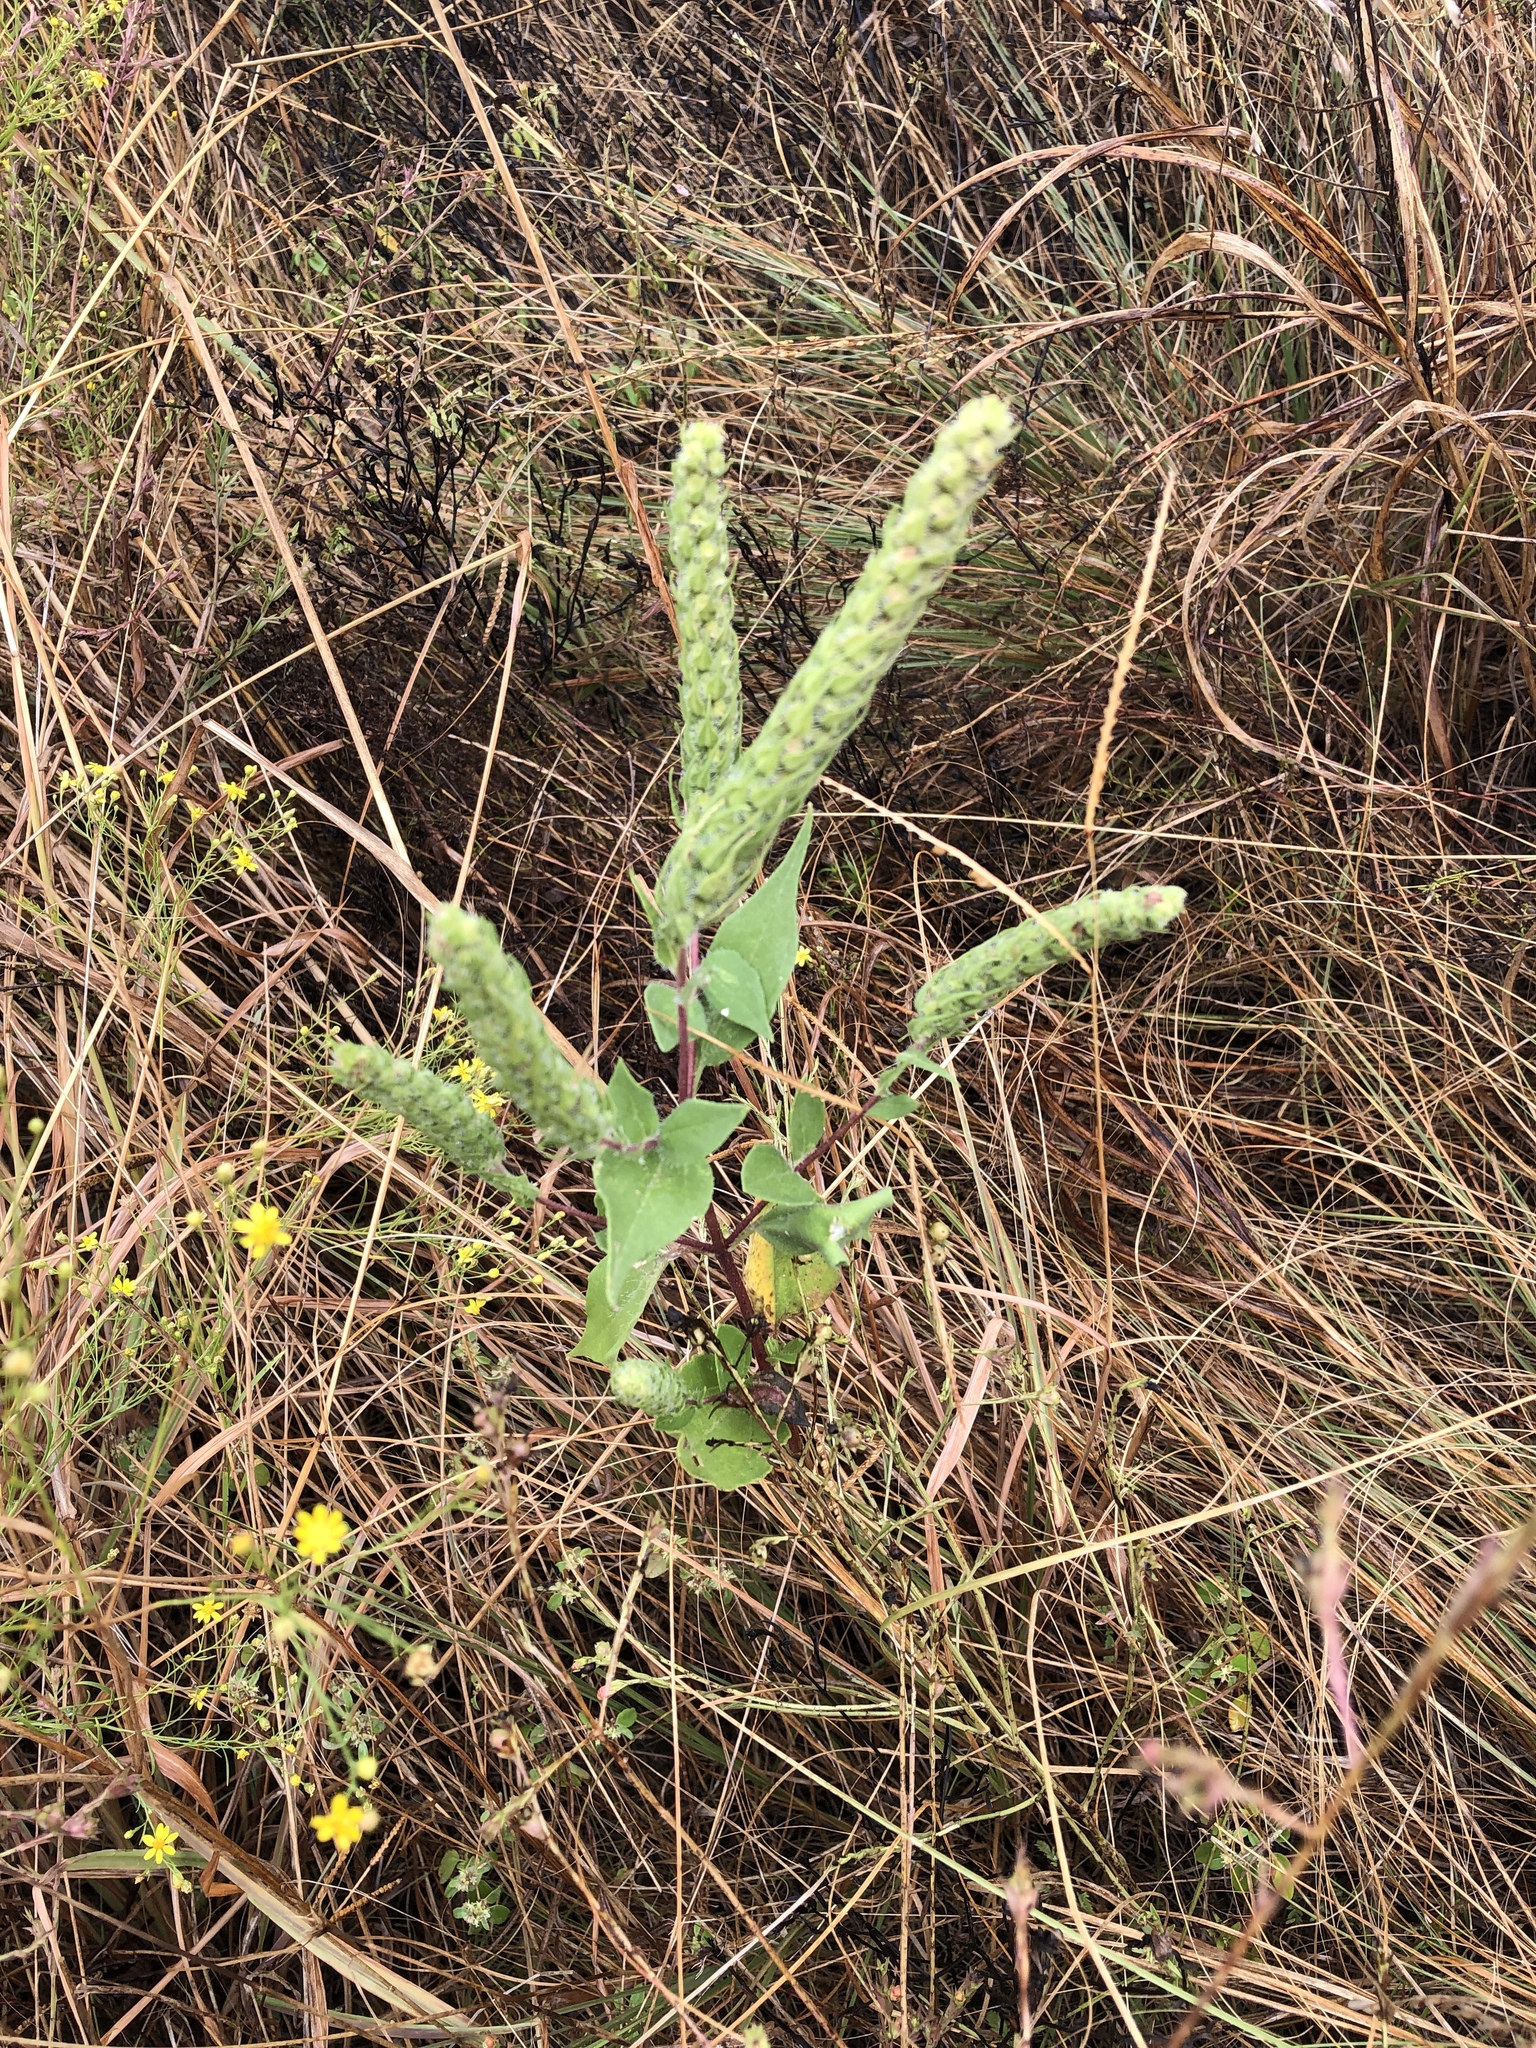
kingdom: Plantae
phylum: Tracheophyta
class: Magnoliopsida
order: Asterales
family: Asteraceae
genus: Iva
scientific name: Iva annua
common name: Marsh-elder
